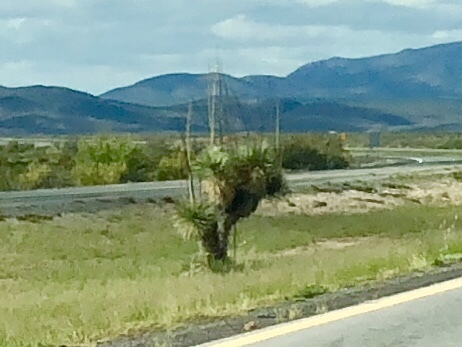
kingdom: Plantae
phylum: Tracheophyta
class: Liliopsida
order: Asparagales
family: Asparagaceae
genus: Yucca
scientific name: Yucca elata
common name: Palmella
